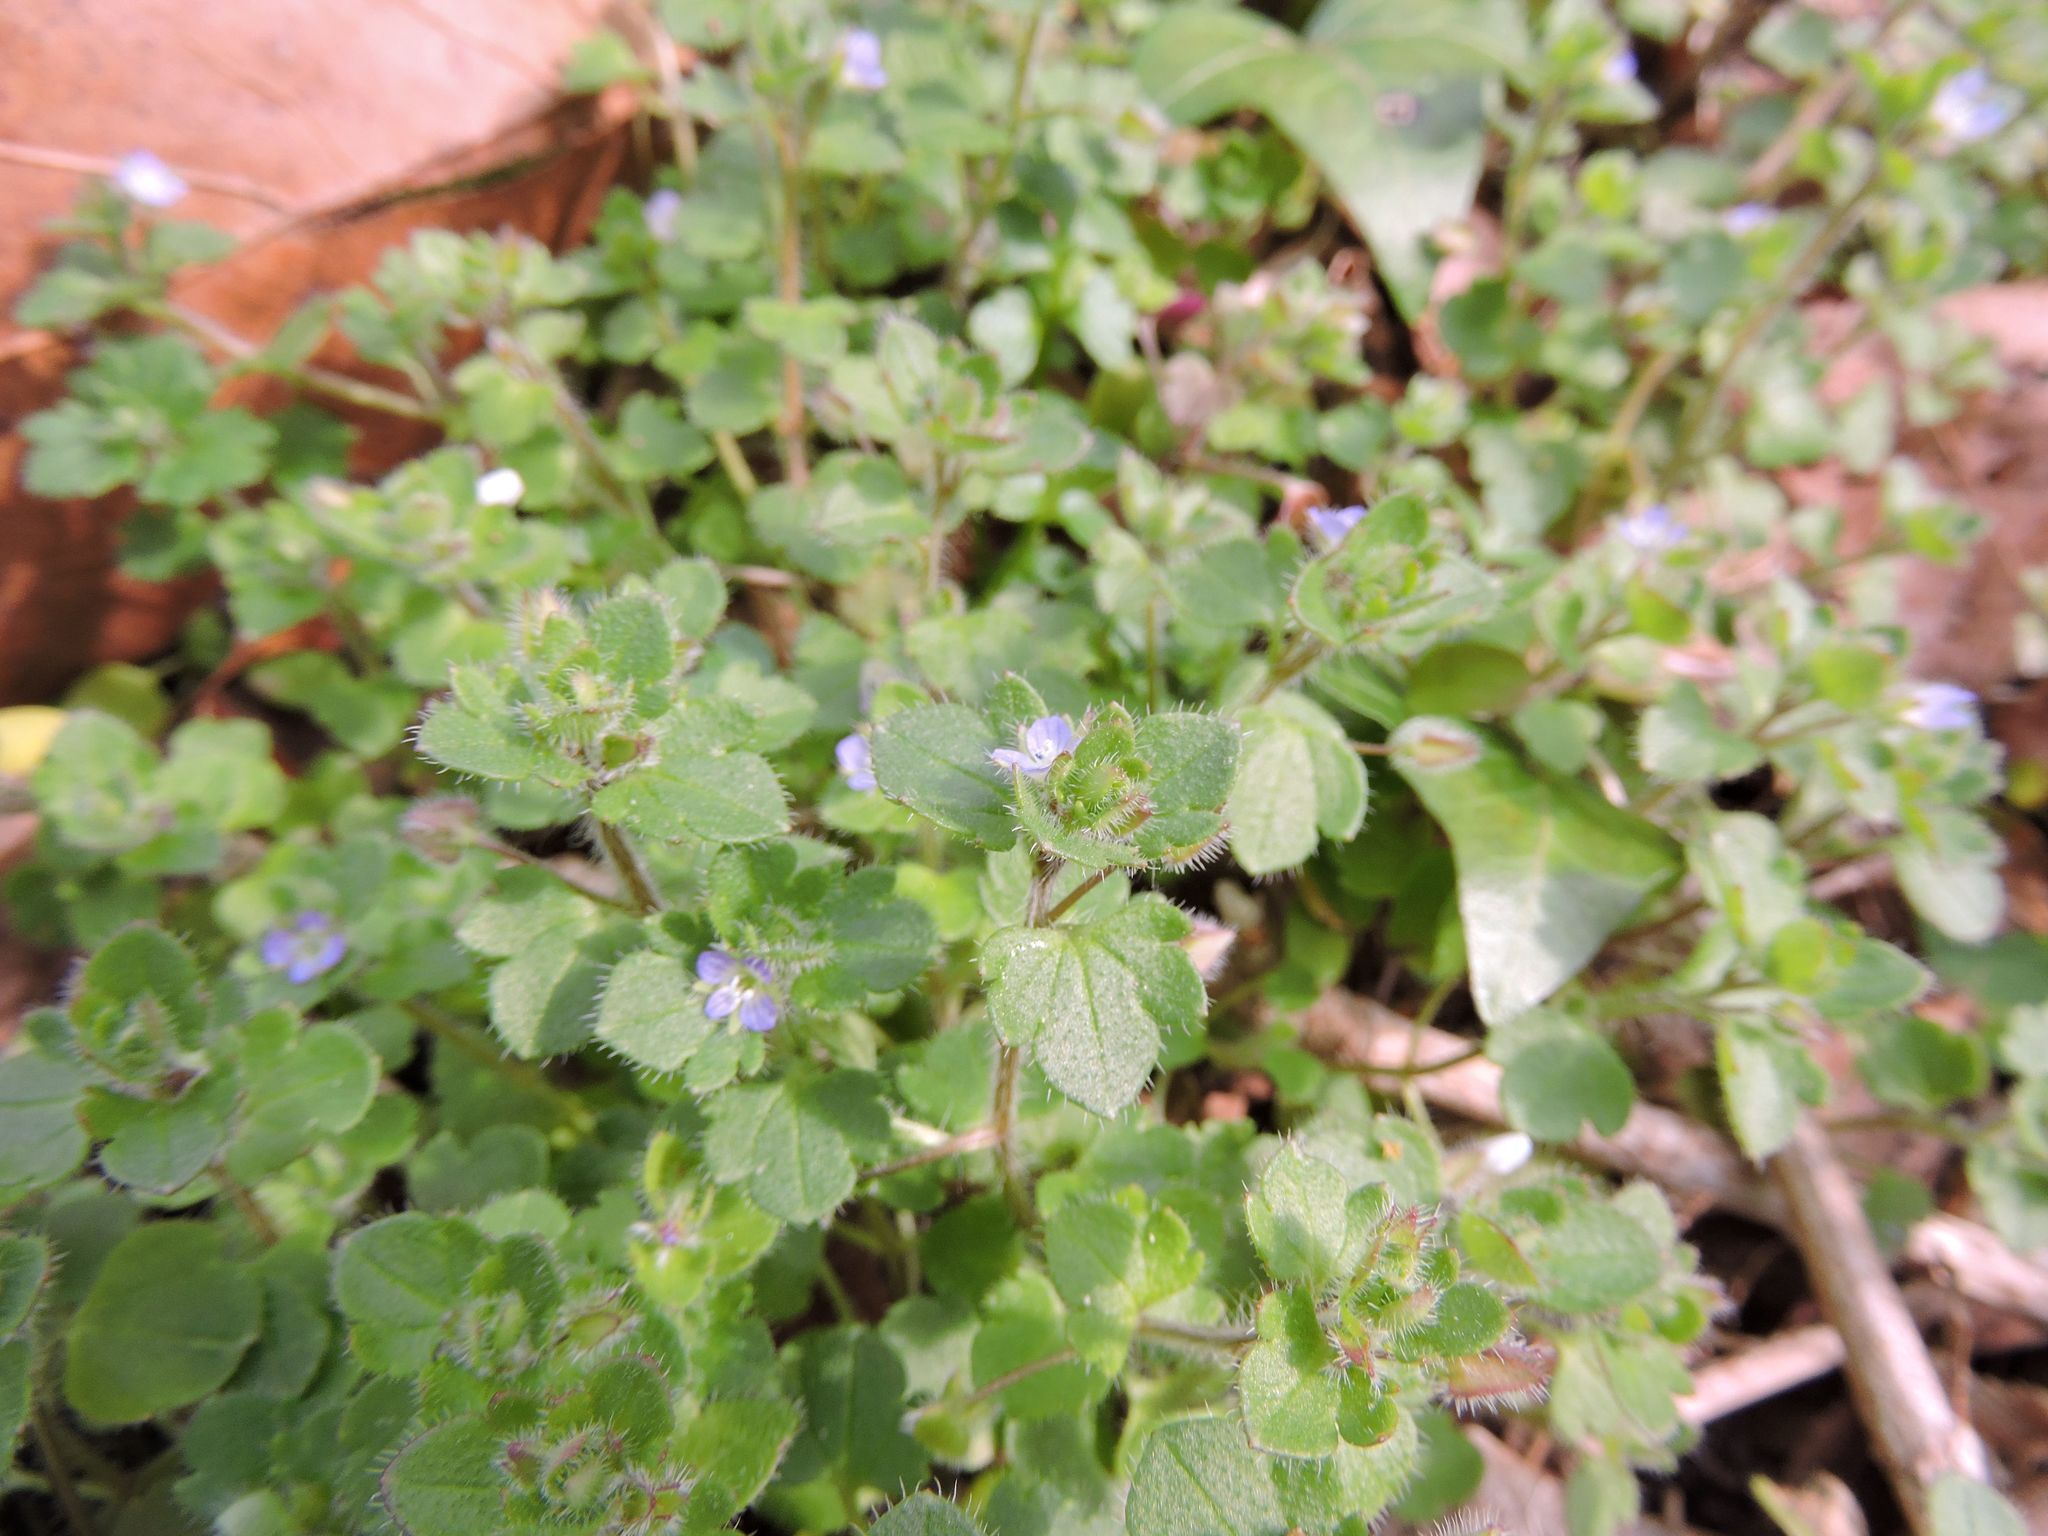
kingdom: Plantae
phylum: Tracheophyta
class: Magnoliopsida
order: Lamiales
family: Plantaginaceae
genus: Veronica
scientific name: Veronica hederifolia
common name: Ivy-leaved speedwell
